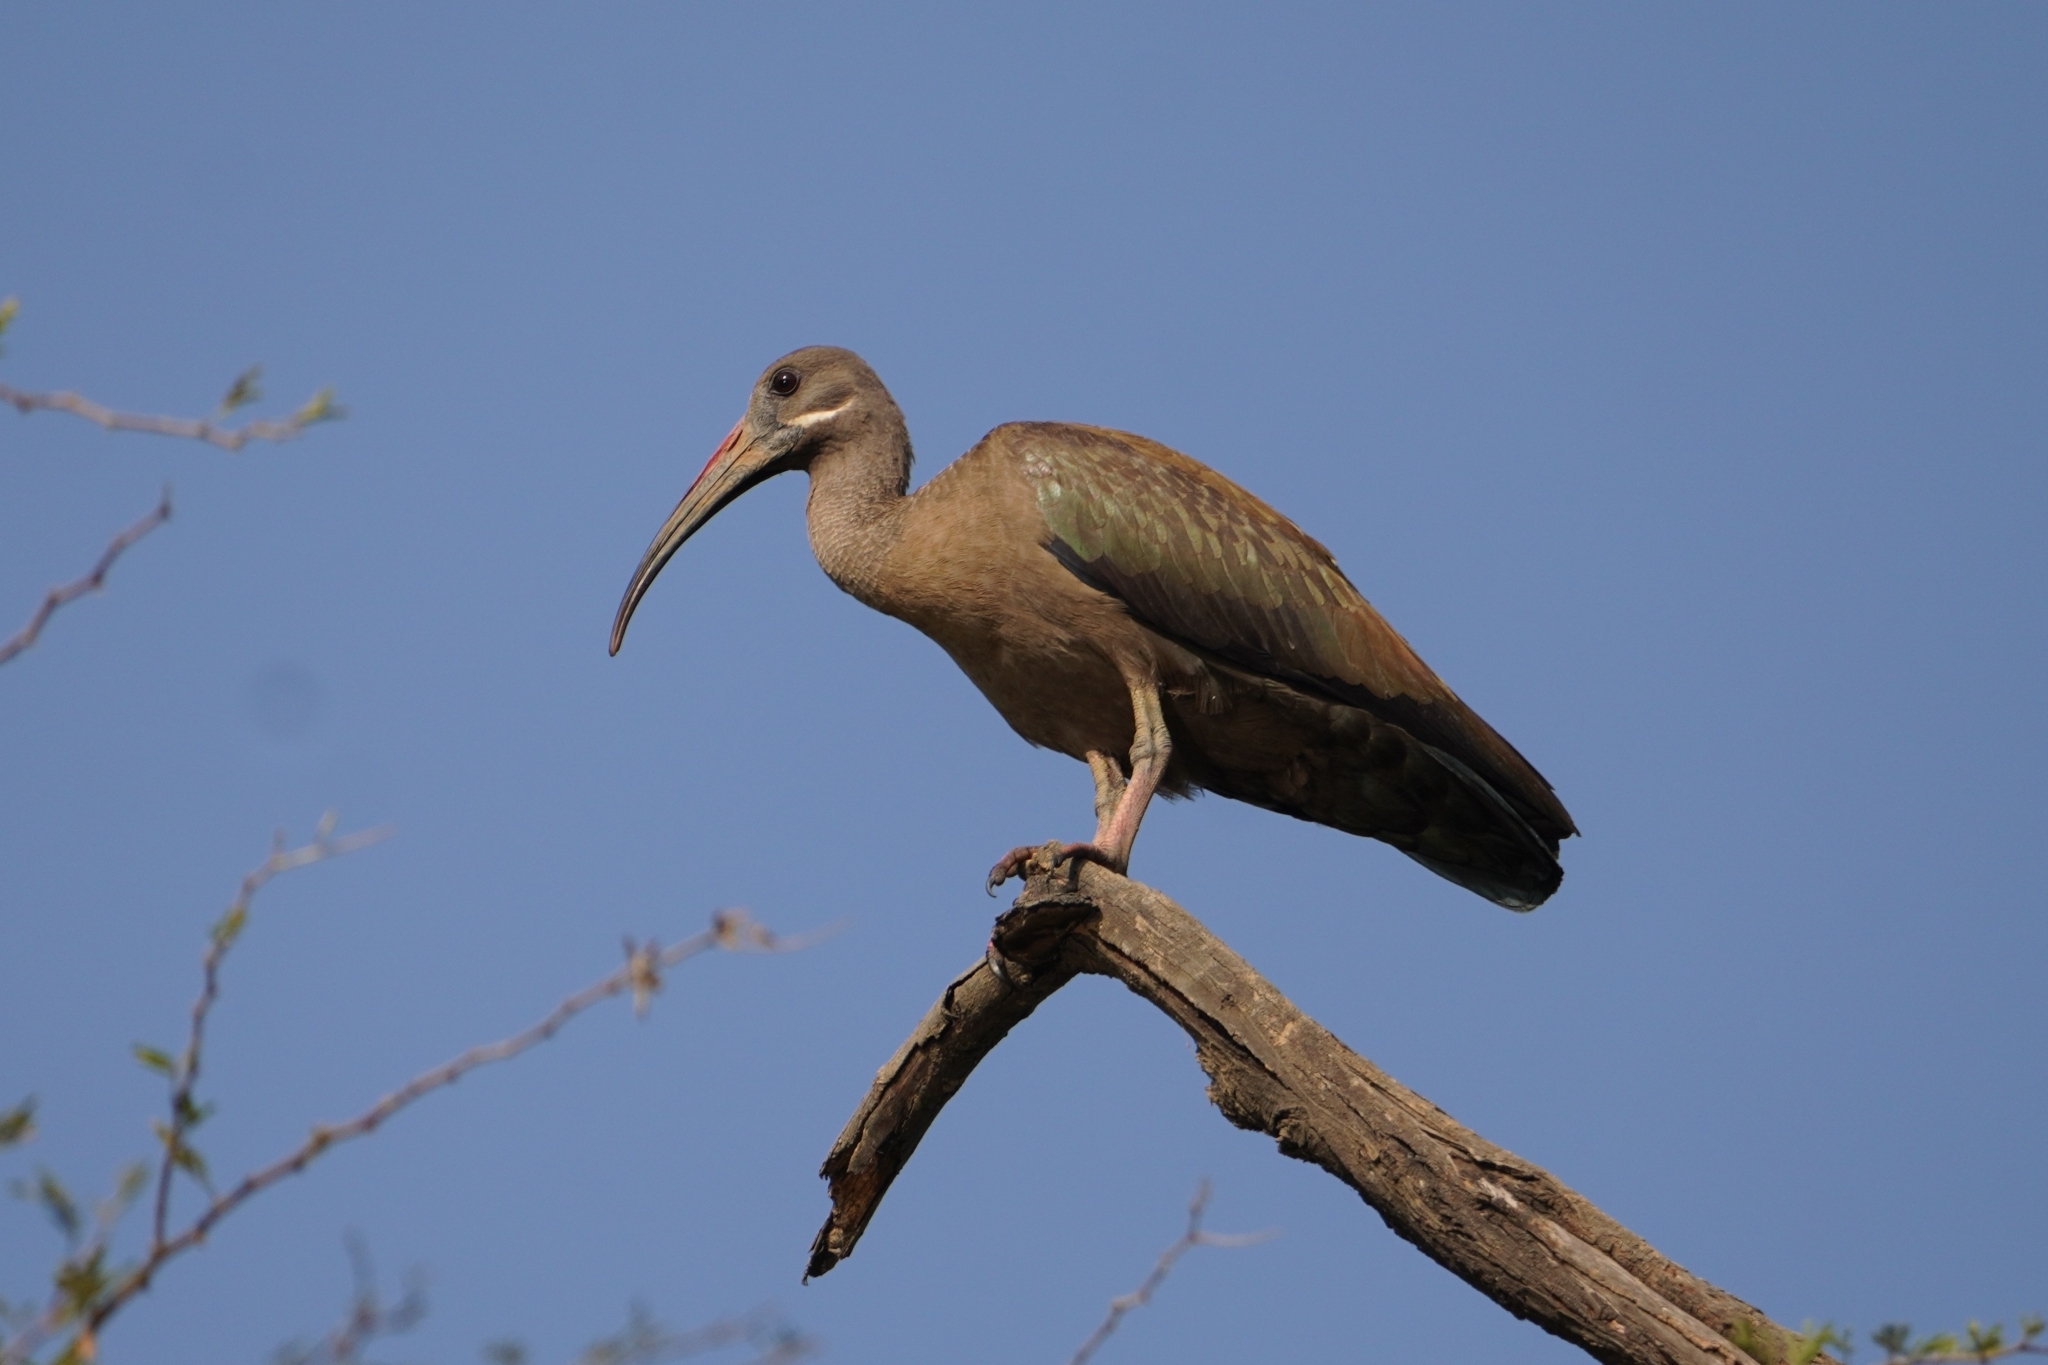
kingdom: Animalia
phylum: Chordata
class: Aves
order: Pelecaniformes
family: Threskiornithidae
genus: Bostrychia
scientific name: Bostrychia hagedash
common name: Hadada ibis
